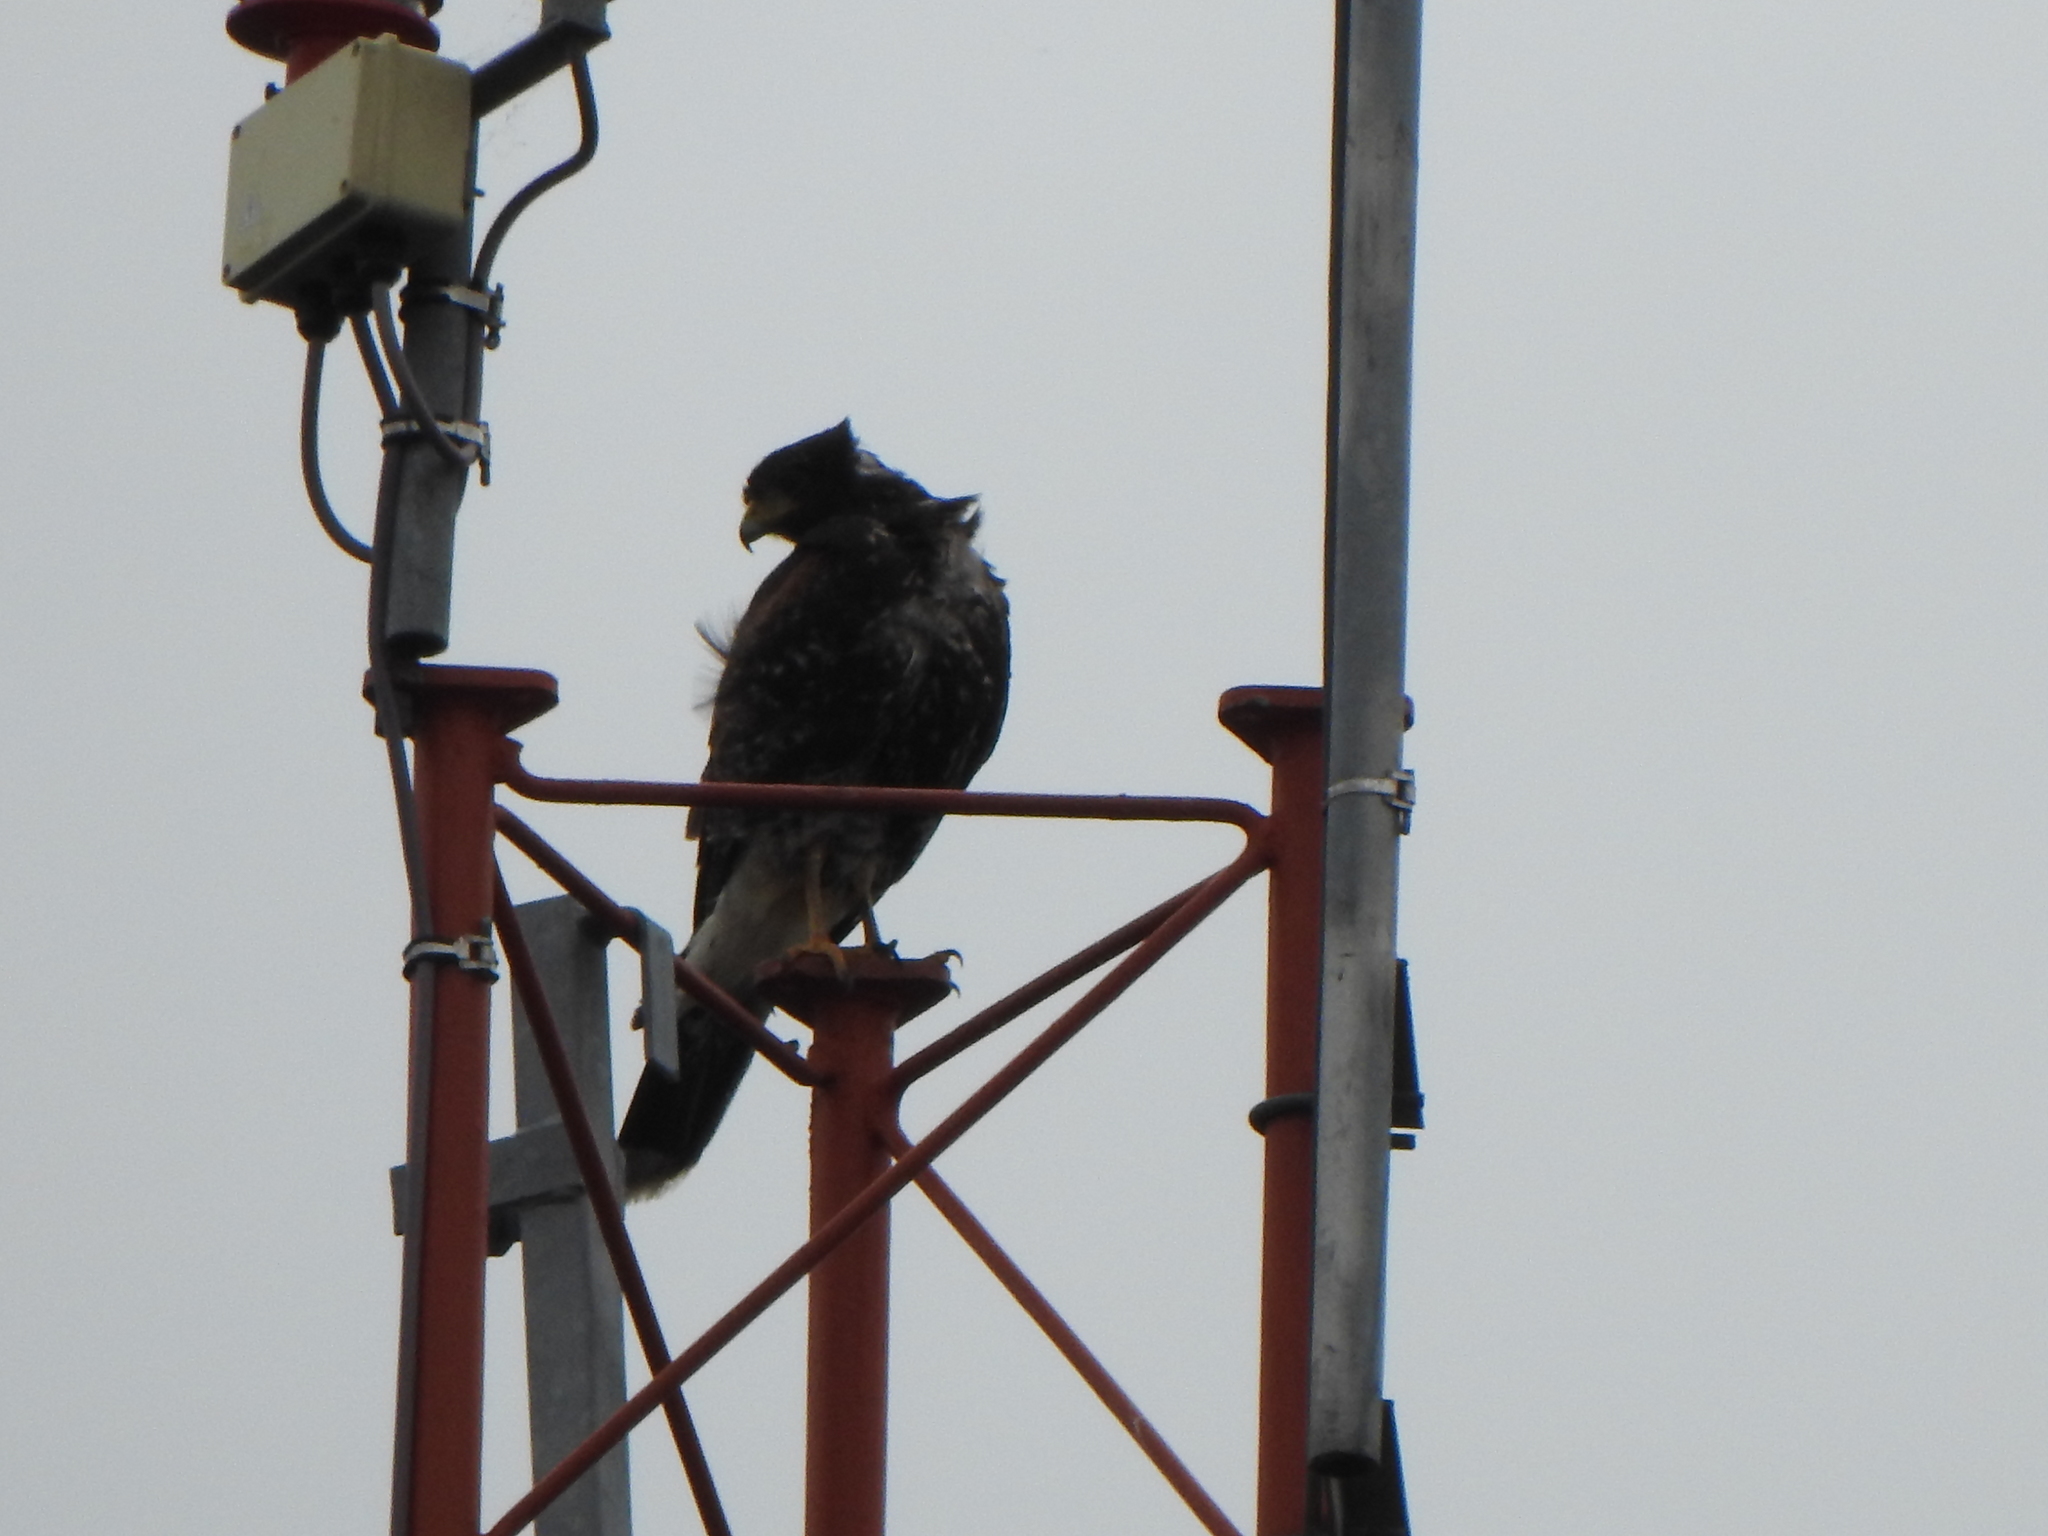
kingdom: Animalia
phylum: Chordata
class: Aves
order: Accipitriformes
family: Accipitridae
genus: Parabuteo
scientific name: Parabuteo unicinctus
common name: Harris's hawk
